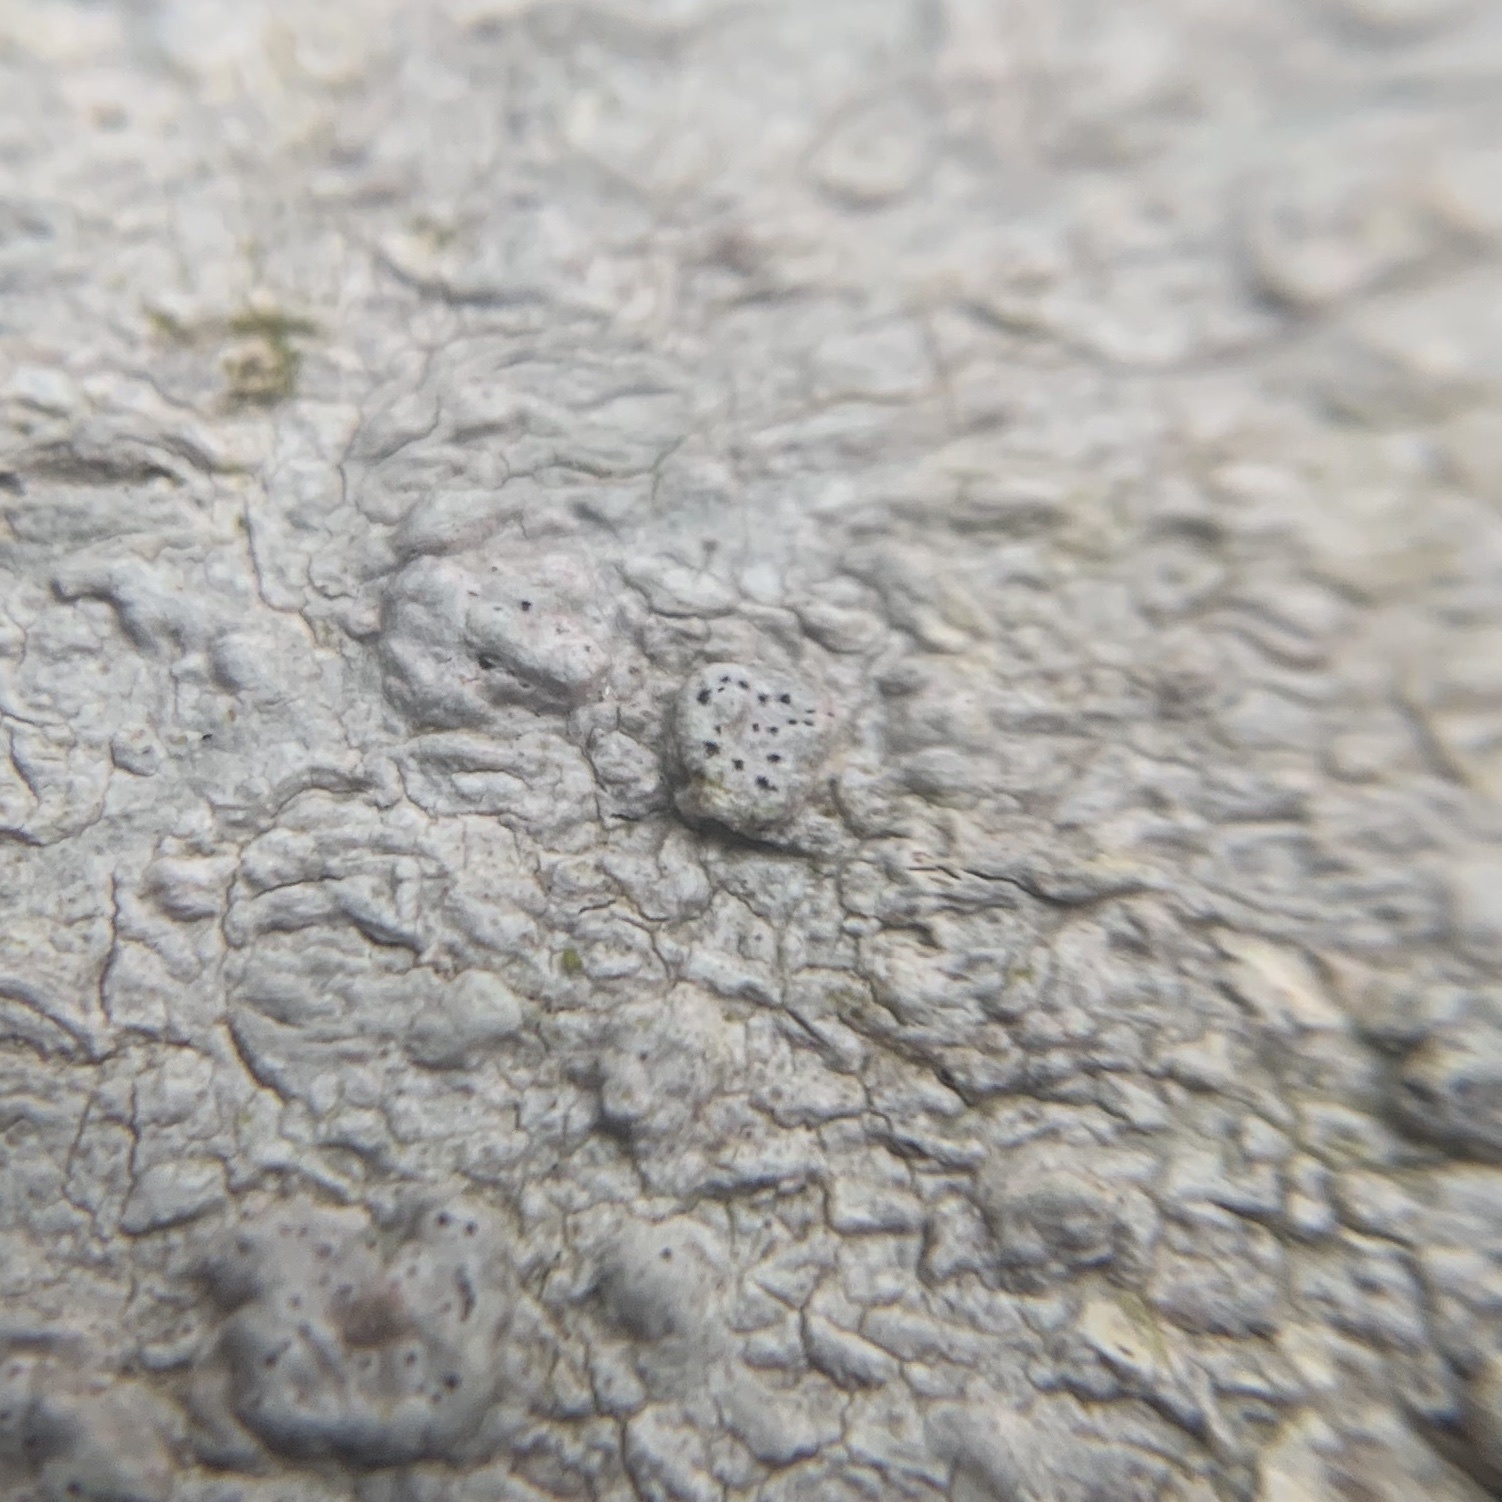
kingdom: Fungi
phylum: Ascomycota
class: Lecanoromycetes
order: Pertusariales
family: Pertusariaceae
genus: Pertusaria
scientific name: Pertusaria subpertusa
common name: Mesa wart lichen
